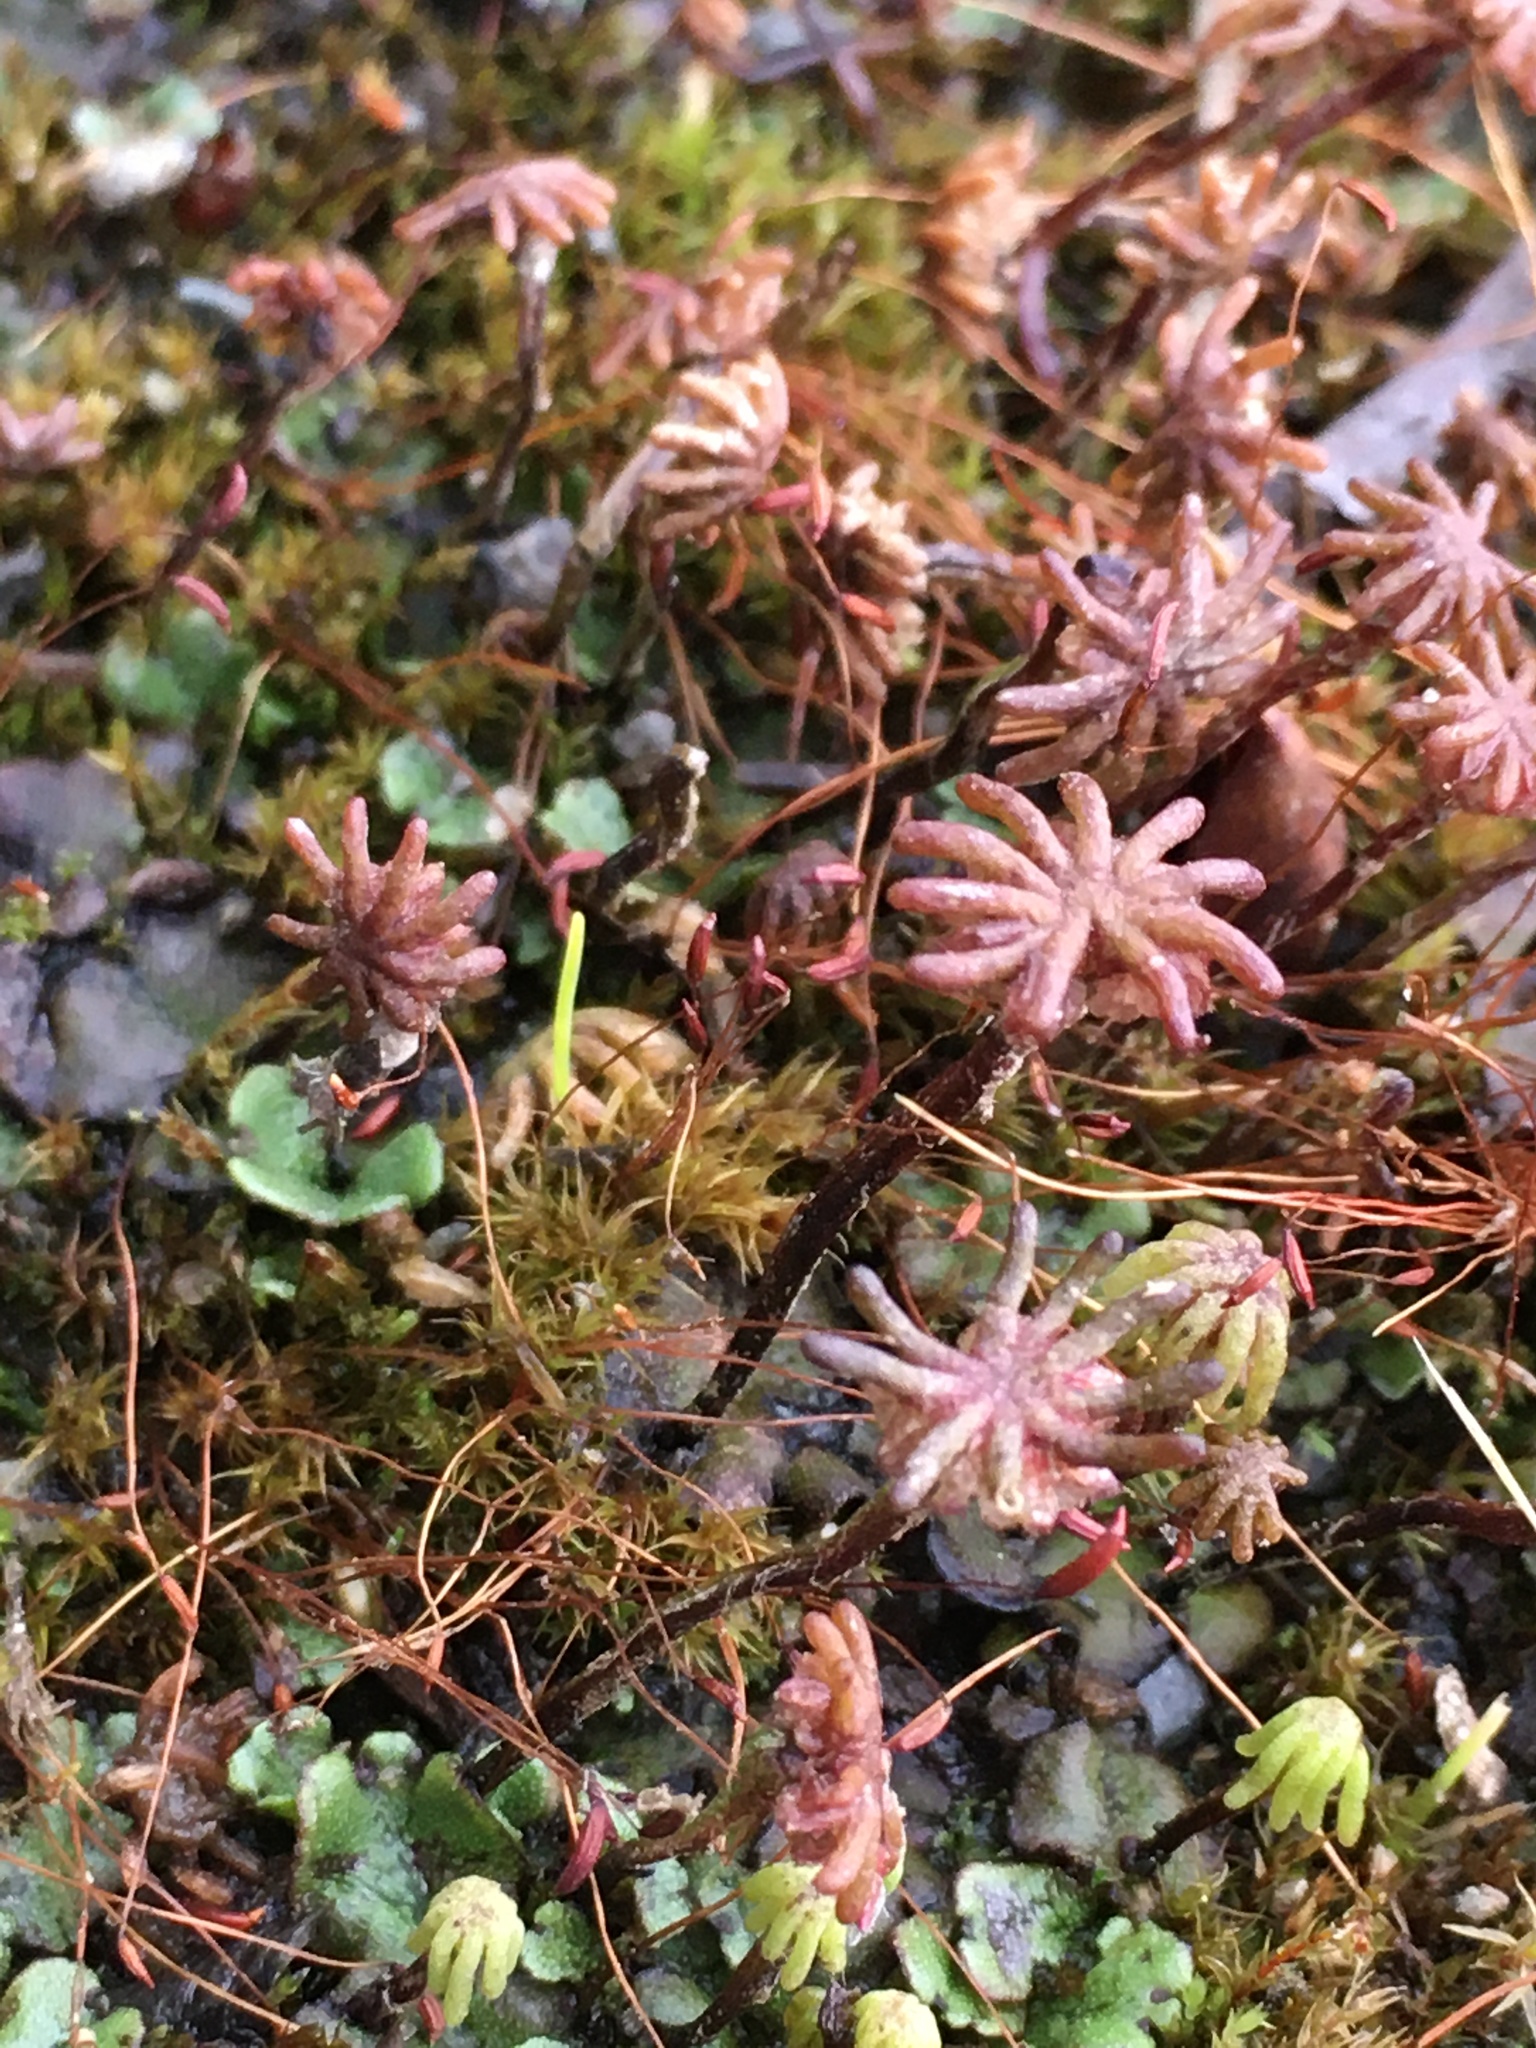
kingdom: Plantae
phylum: Marchantiophyta
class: Marchantiopsida
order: Marchantiales
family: Marchantiaceae
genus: Marchantia
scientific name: Marchantia polymorpha
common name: Common liverwort
